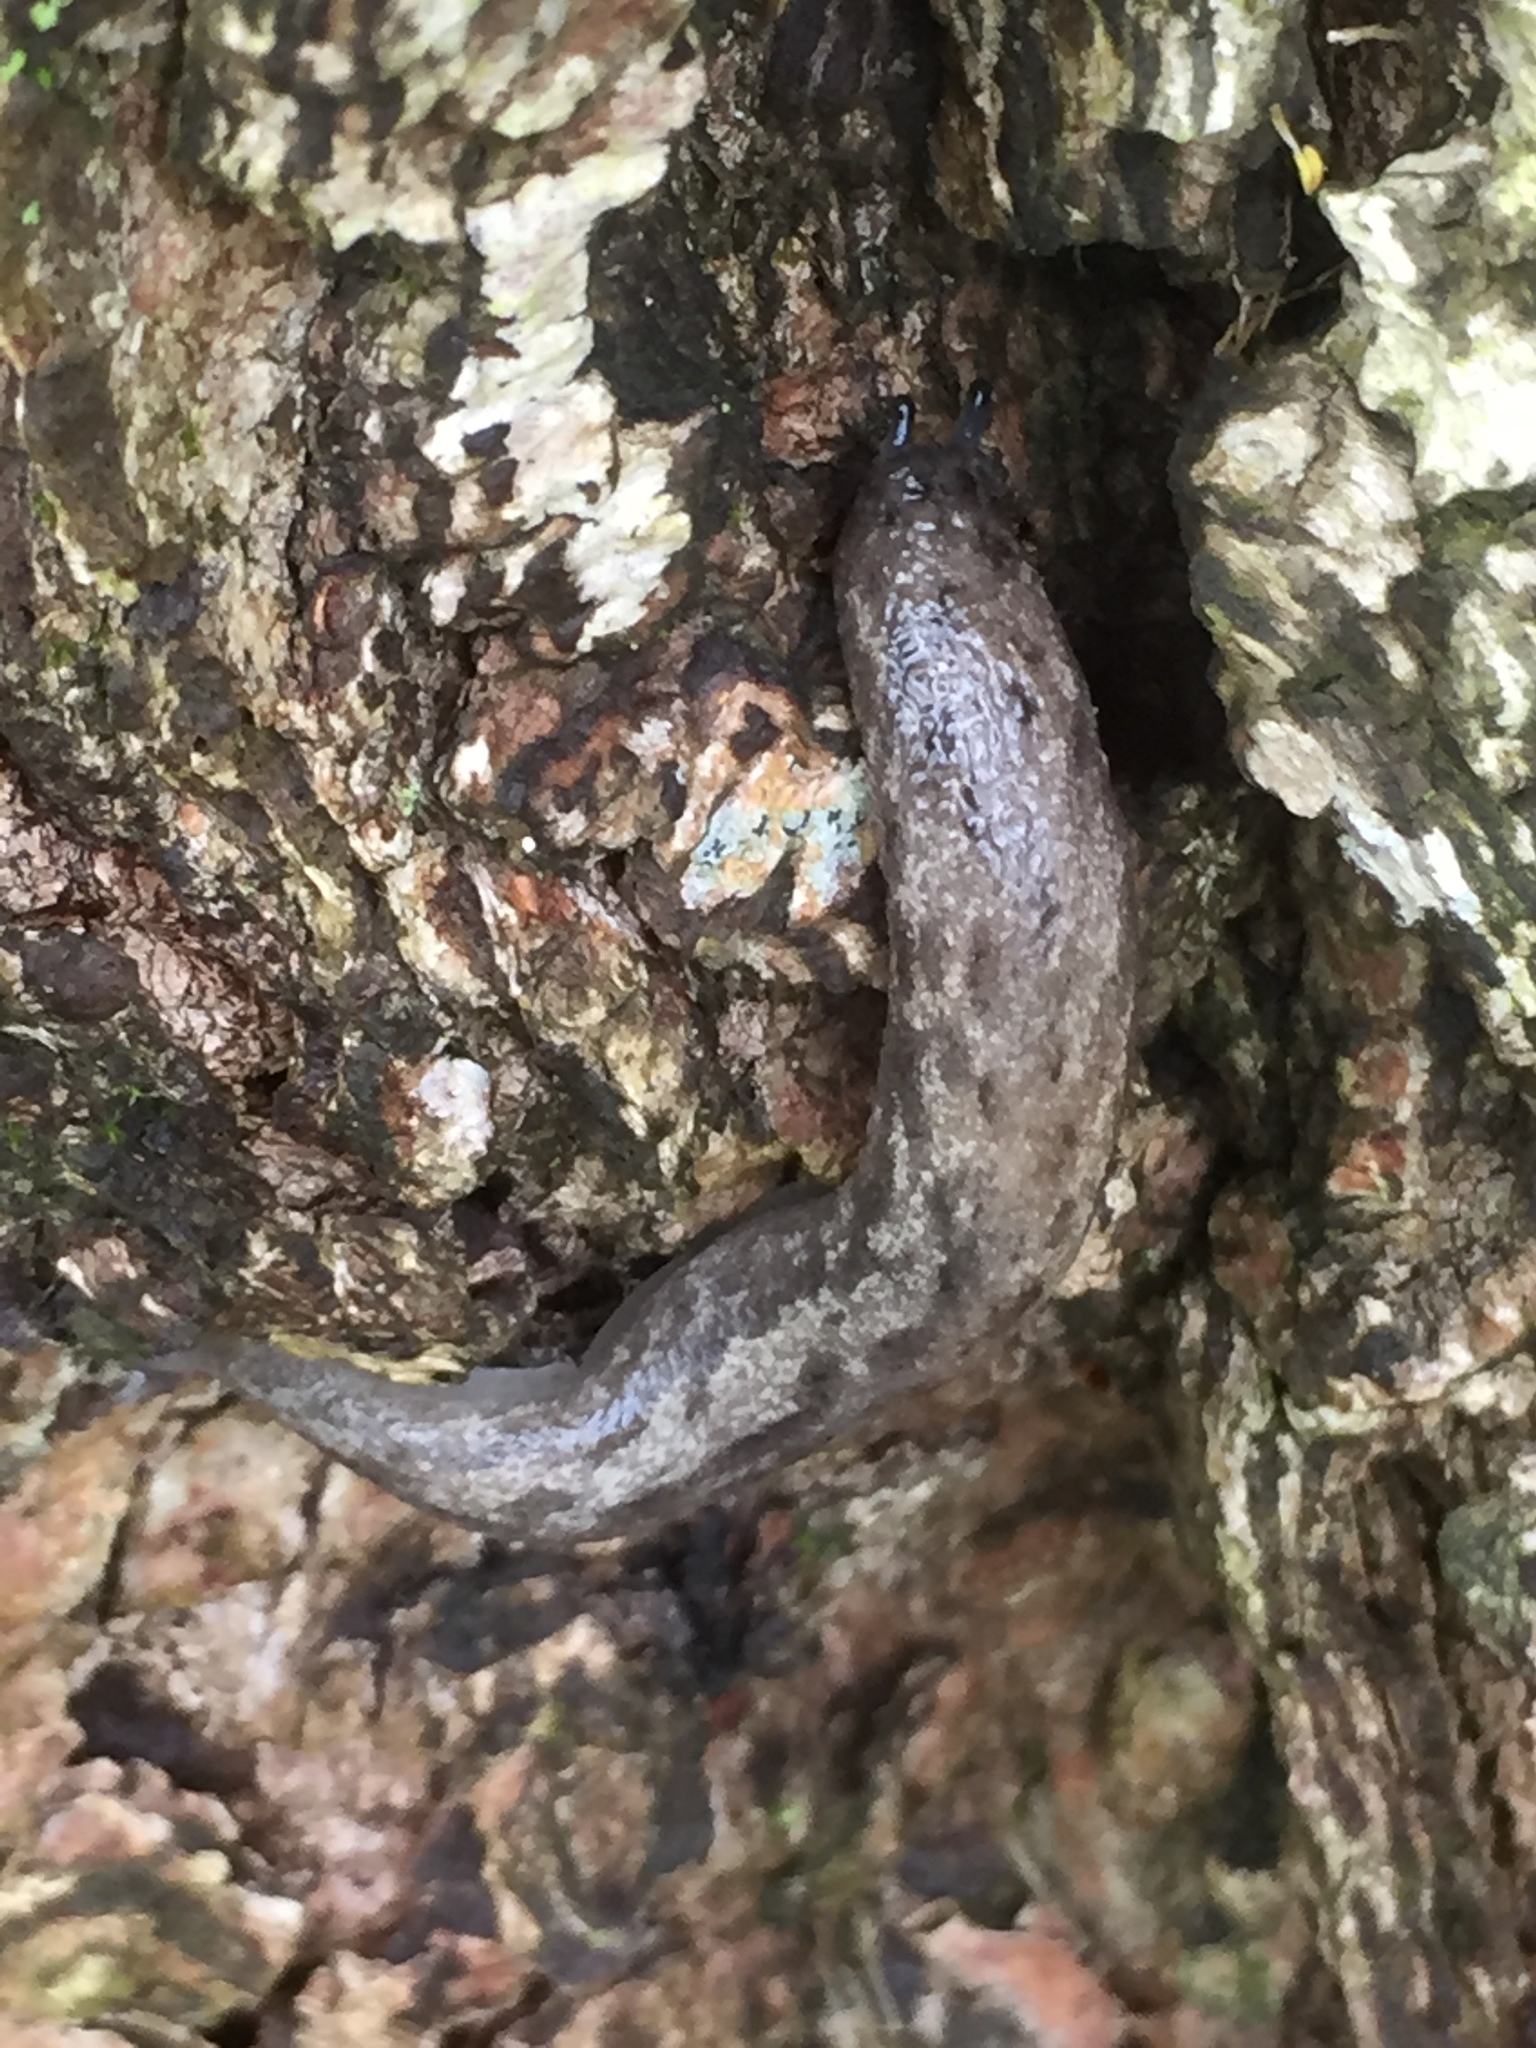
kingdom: Animalia
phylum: Mollusca
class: Gastropoda
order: Stylommatophora
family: Philomycidae
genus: Megapallifera
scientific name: Megapallifera mutabilis
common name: Changeable mantleslug
